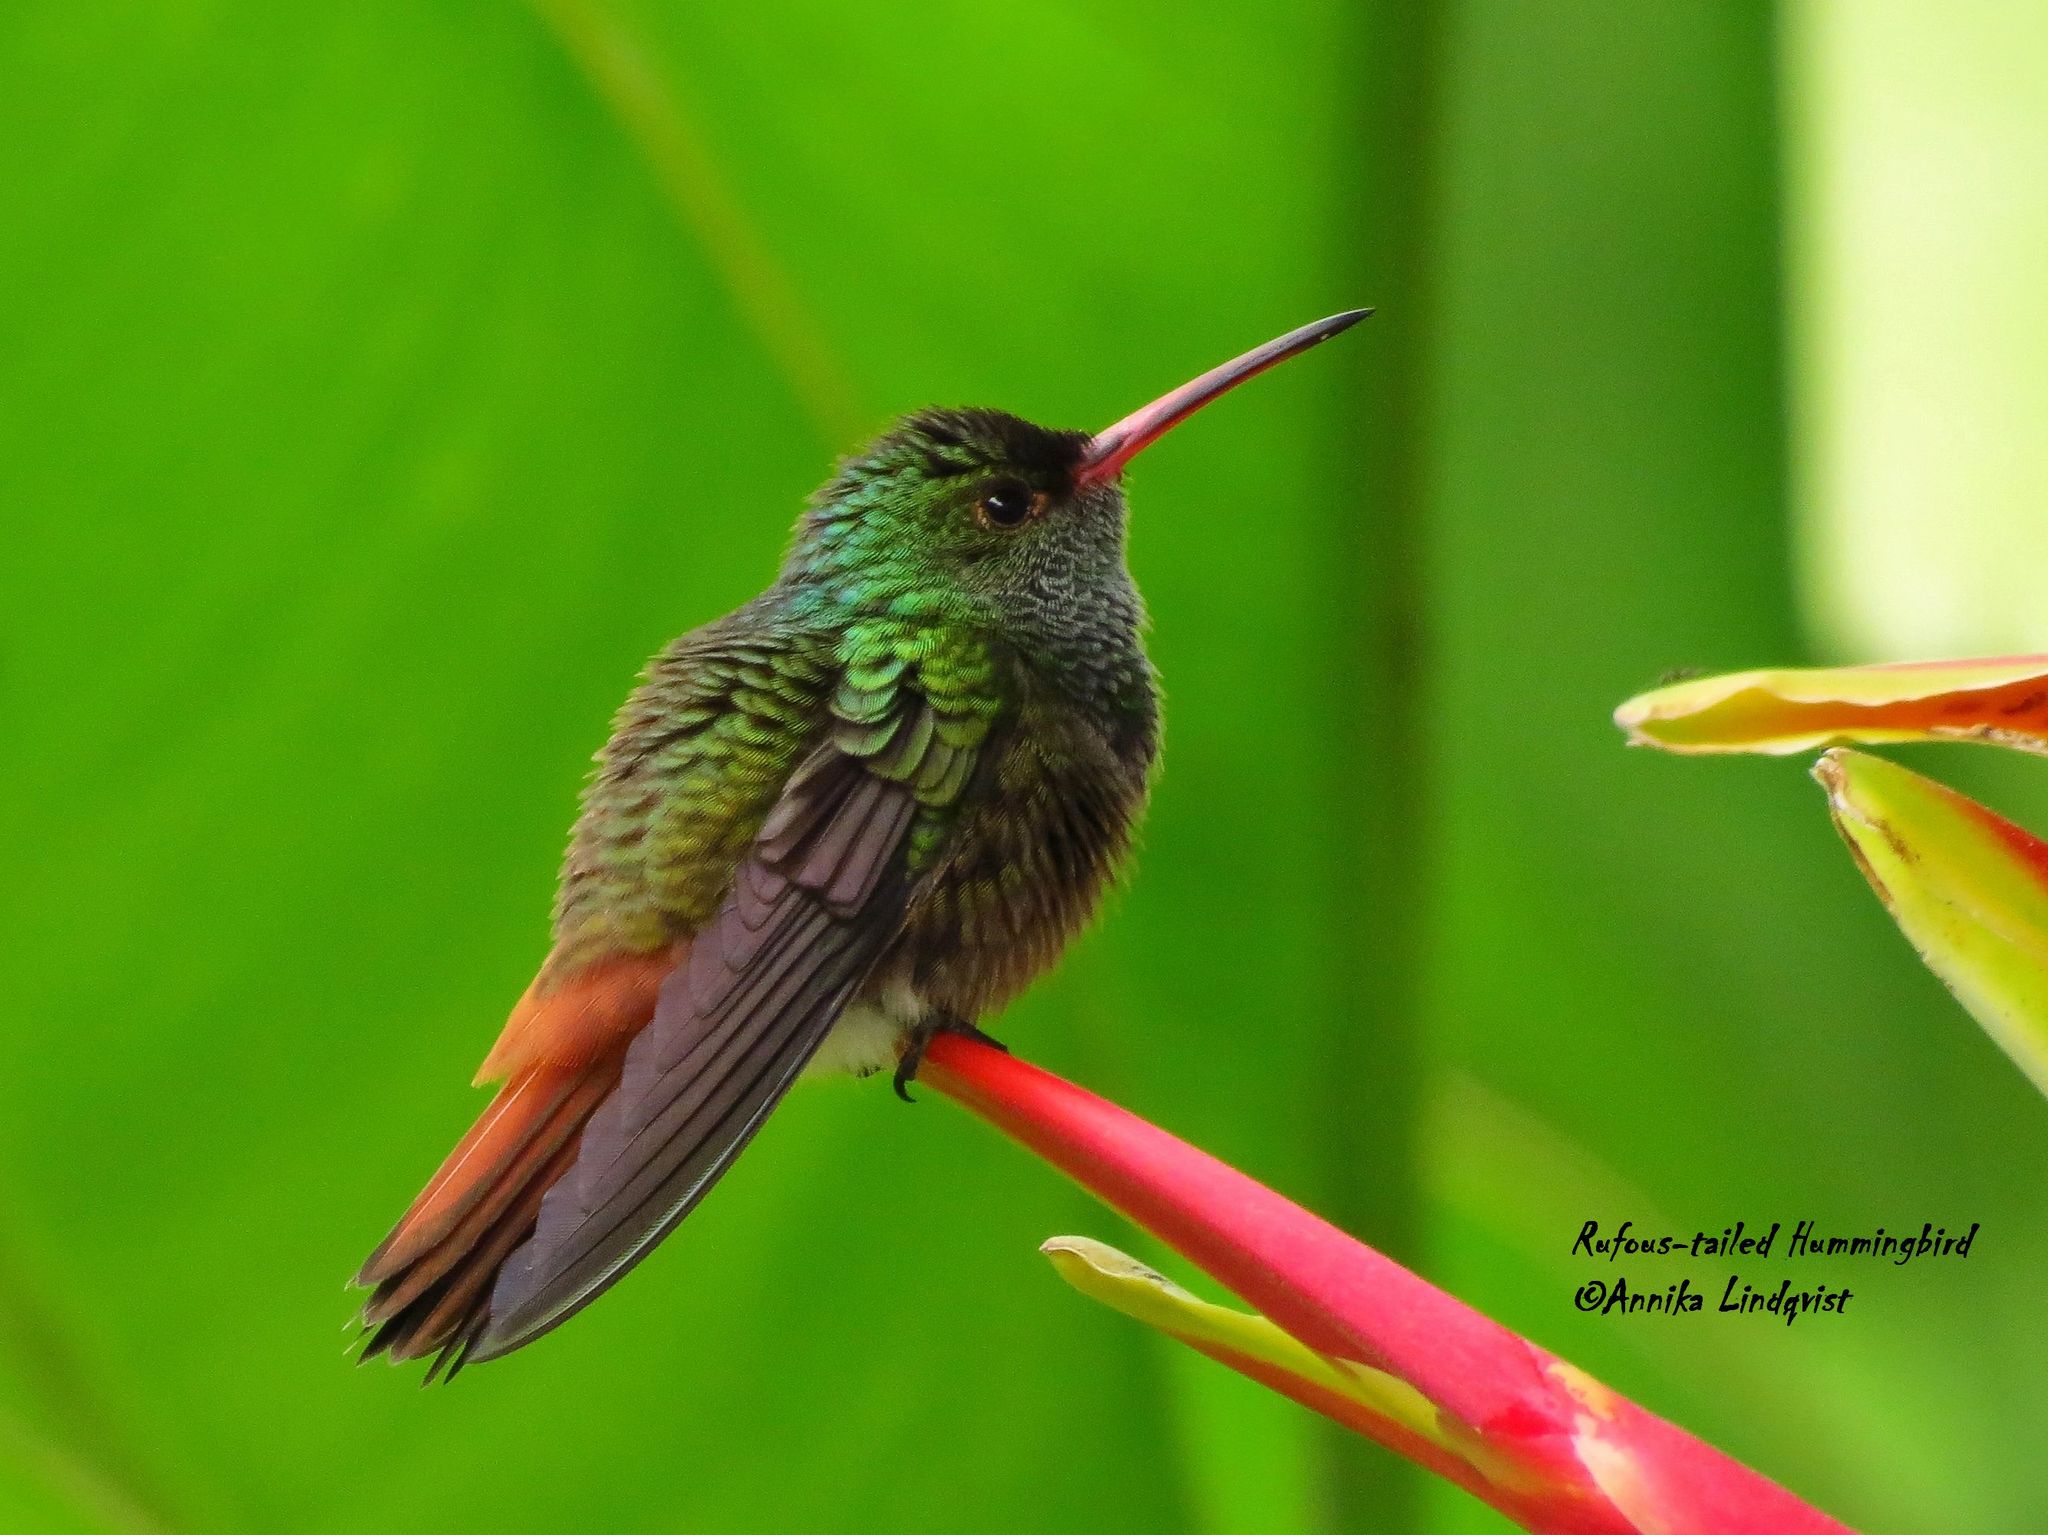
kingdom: Animalia
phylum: Chordata
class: Aves
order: Apodiformes
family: Trochilidae
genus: Amazilia
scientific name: Amazilia tzacatl
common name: Rufous-tailed hummingbird
